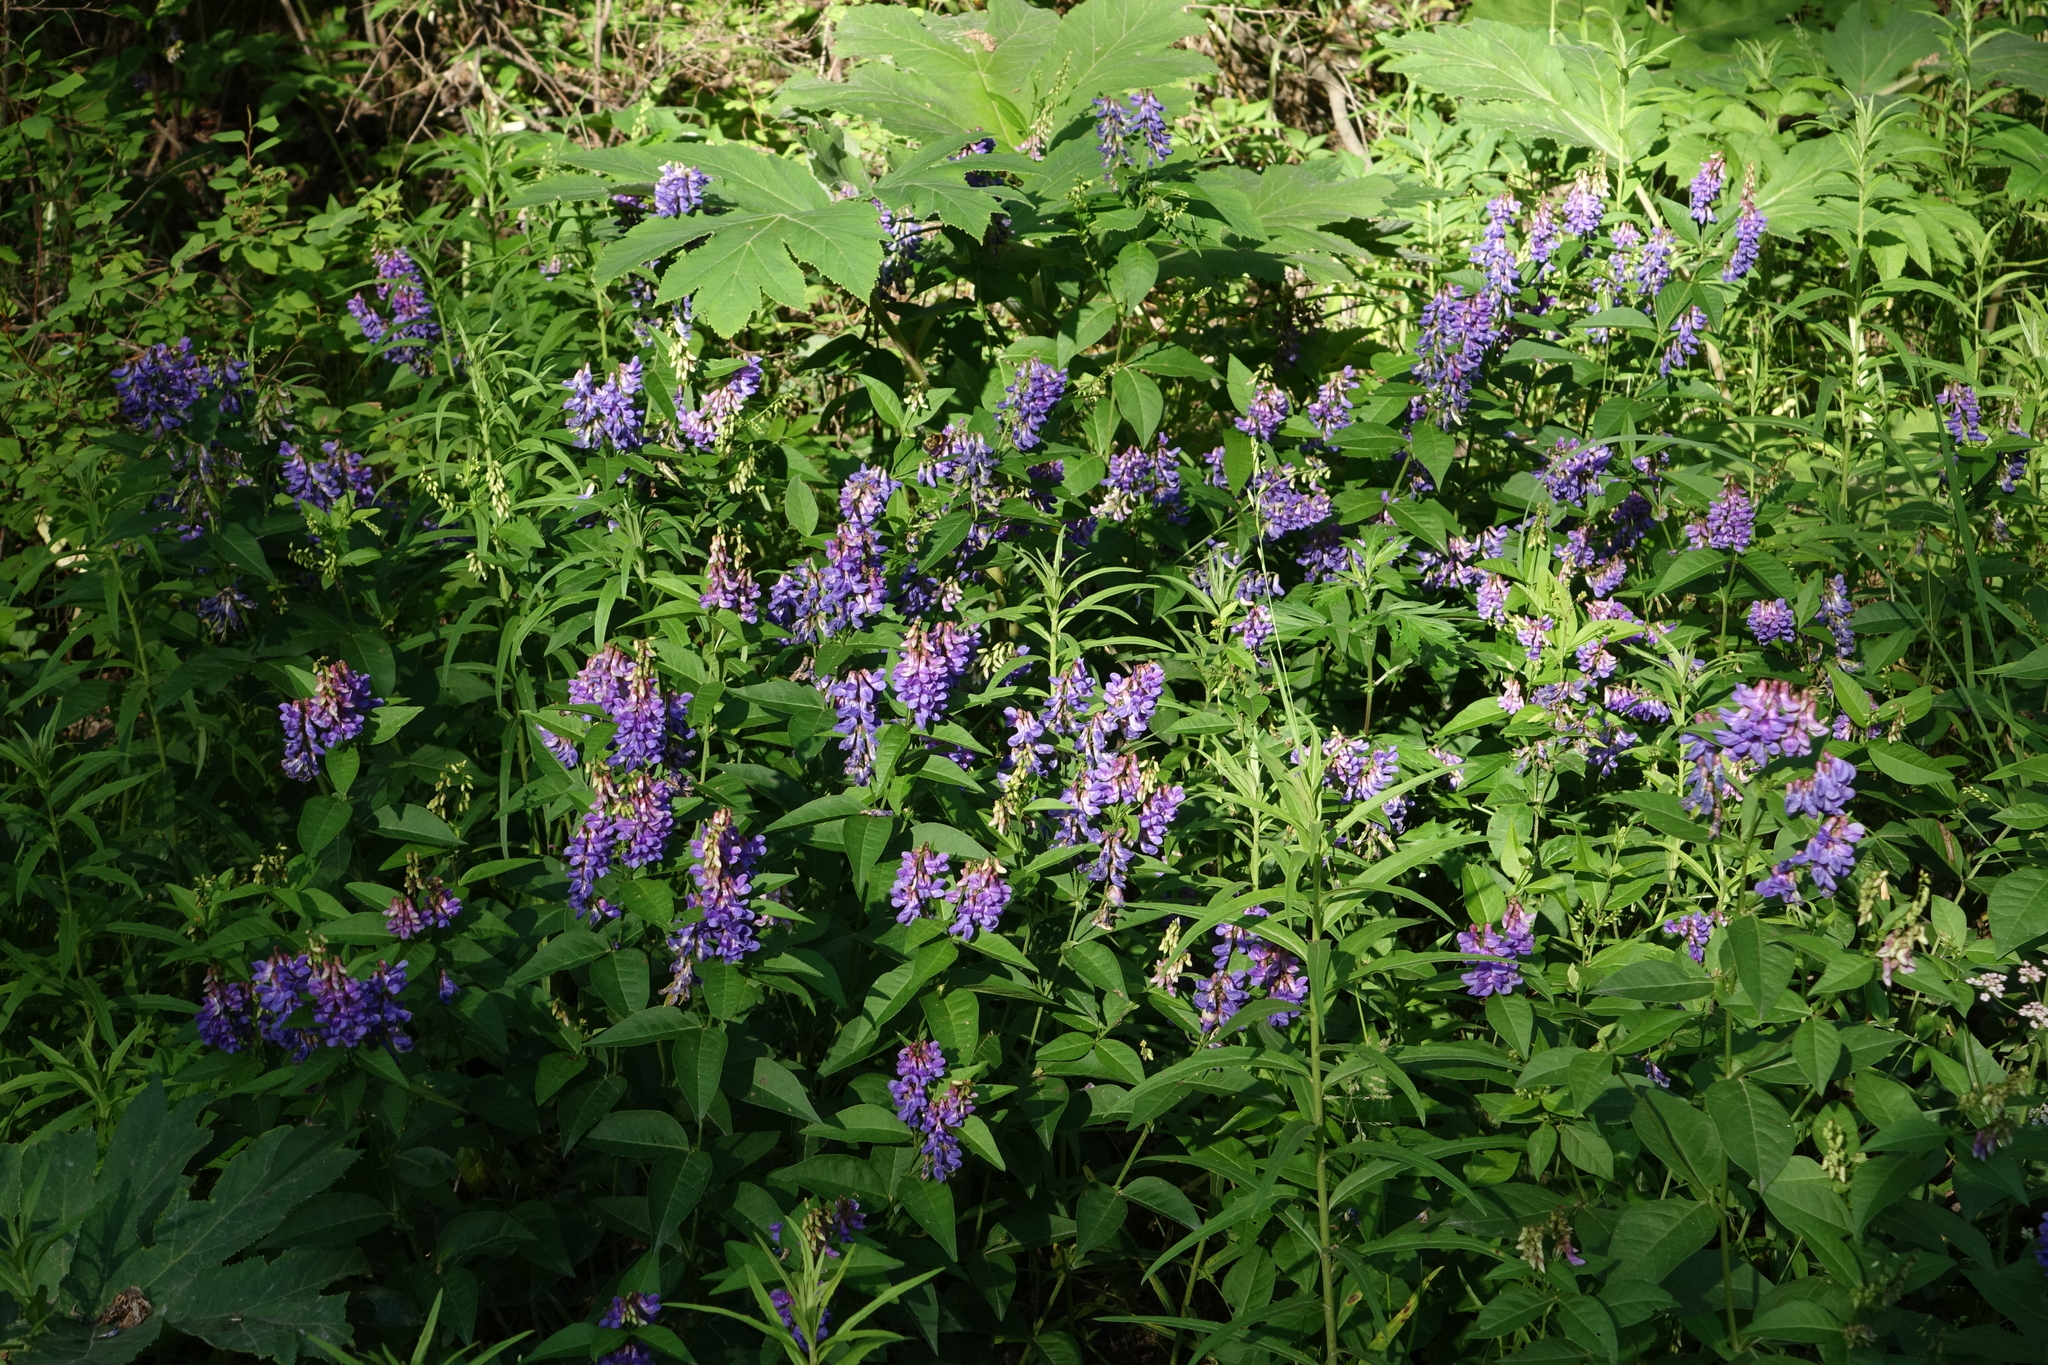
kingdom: Plantae
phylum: Tracheophyta
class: Magnoliopsida
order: Fabales
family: Fabaceae
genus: Vicia
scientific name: Vicia unijuga
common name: Two-leaf vetch
